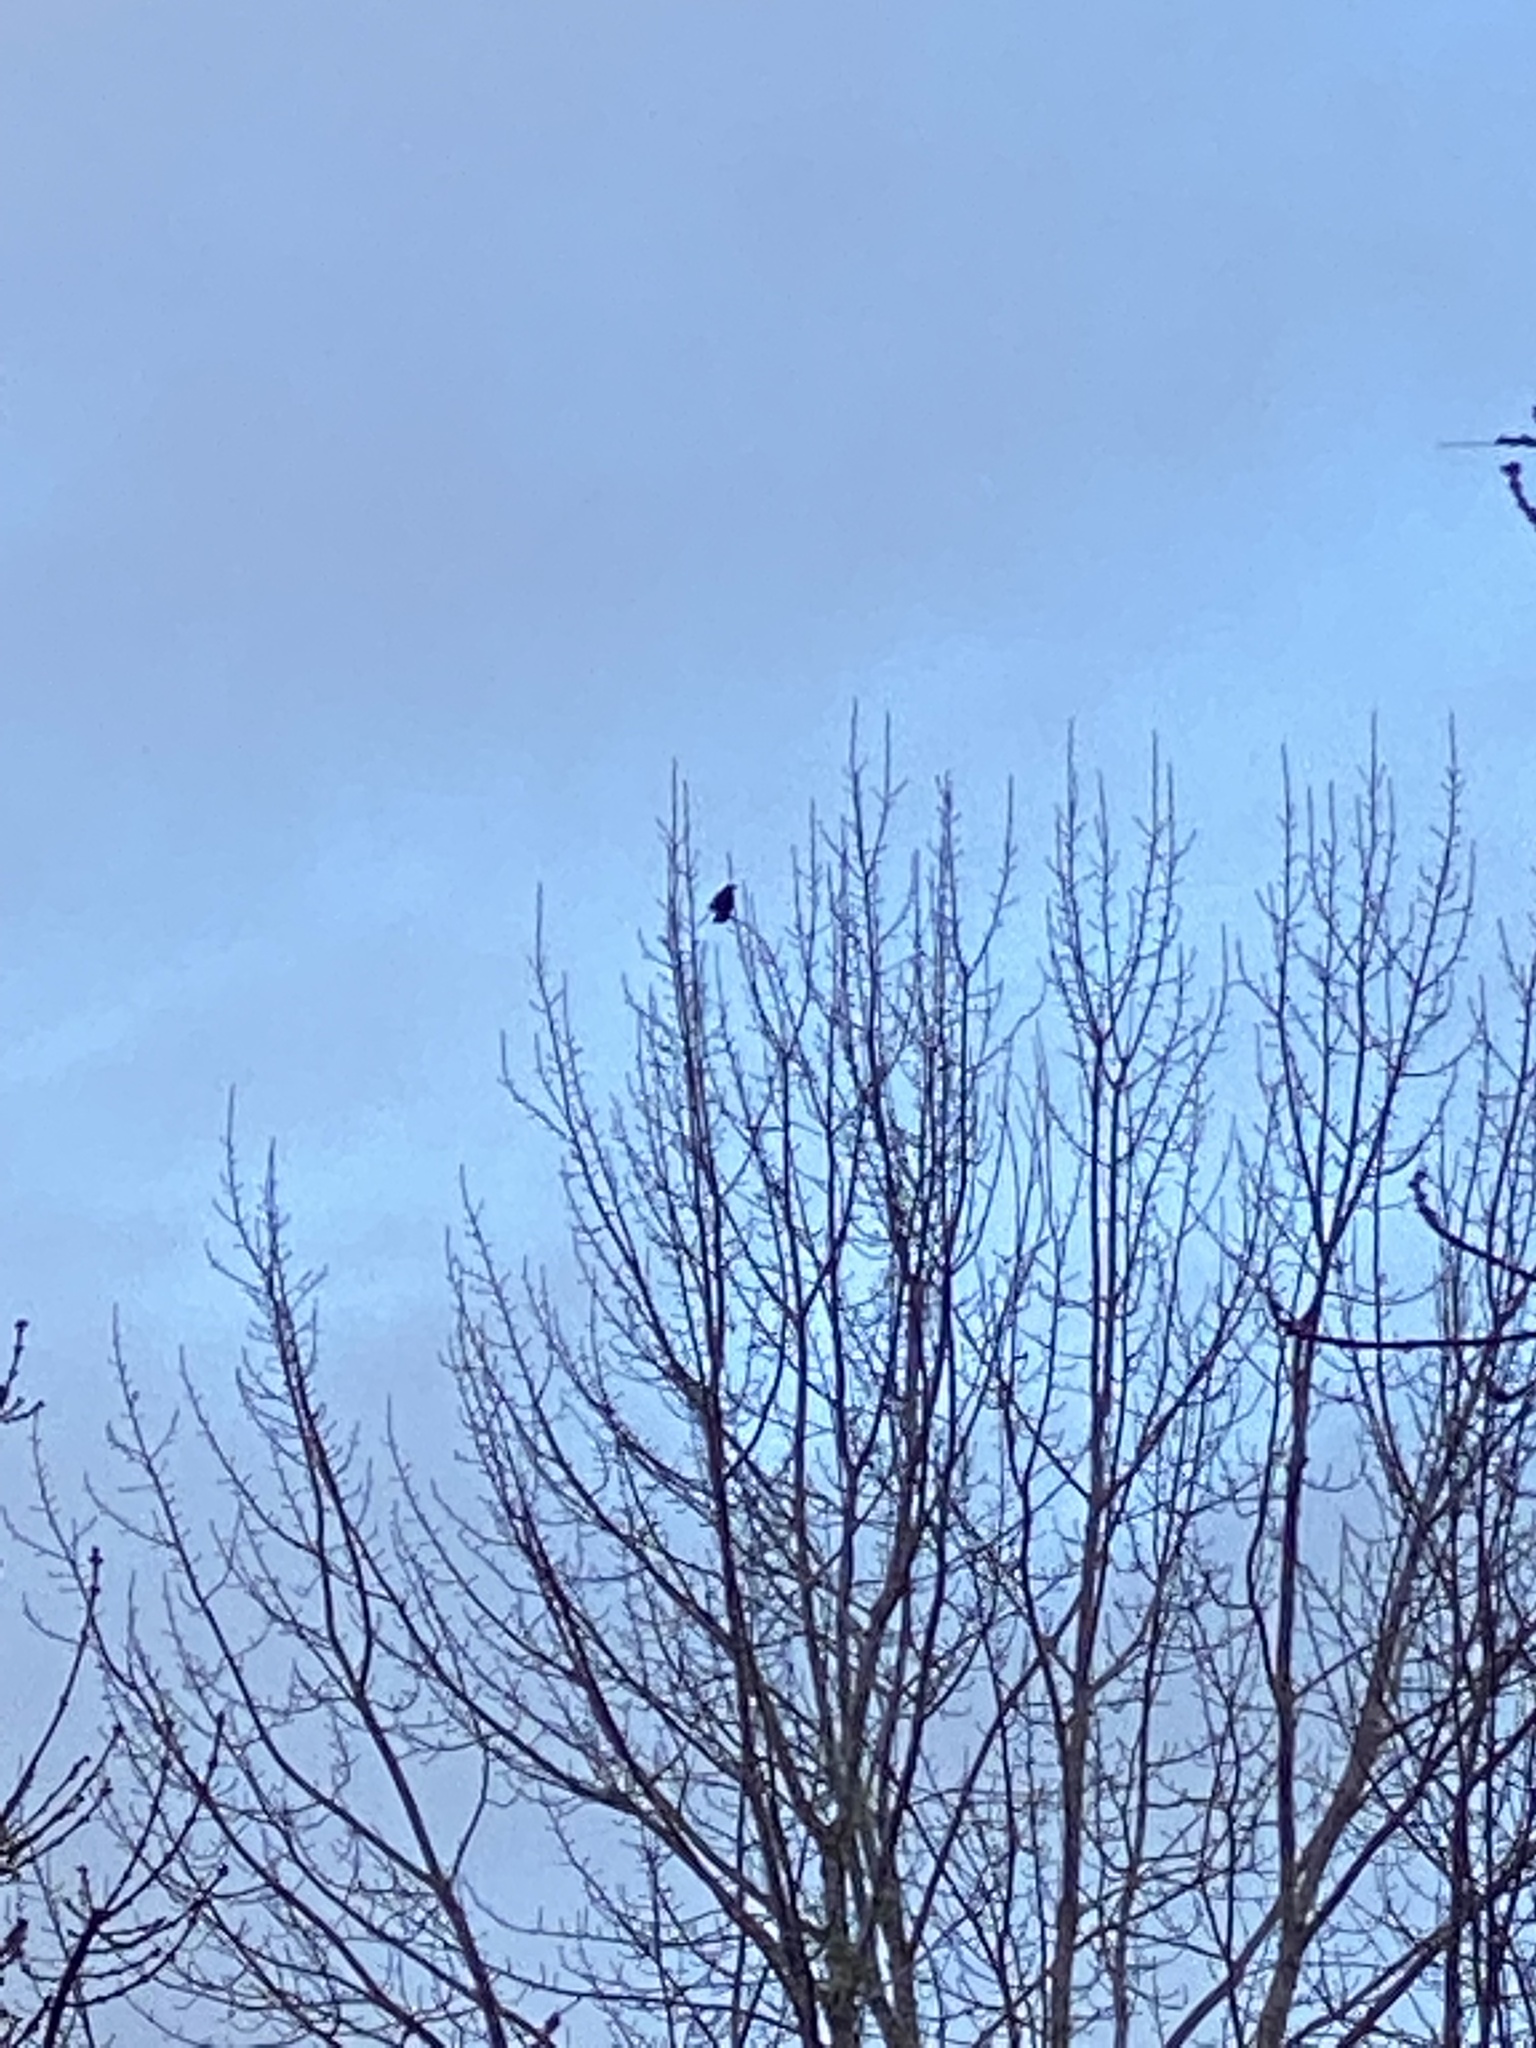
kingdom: Animalia
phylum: Chordata
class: Aves
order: Passeriformes
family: Corvidae
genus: Corvus
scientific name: Corvus brachyrhynchos
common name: American crow
